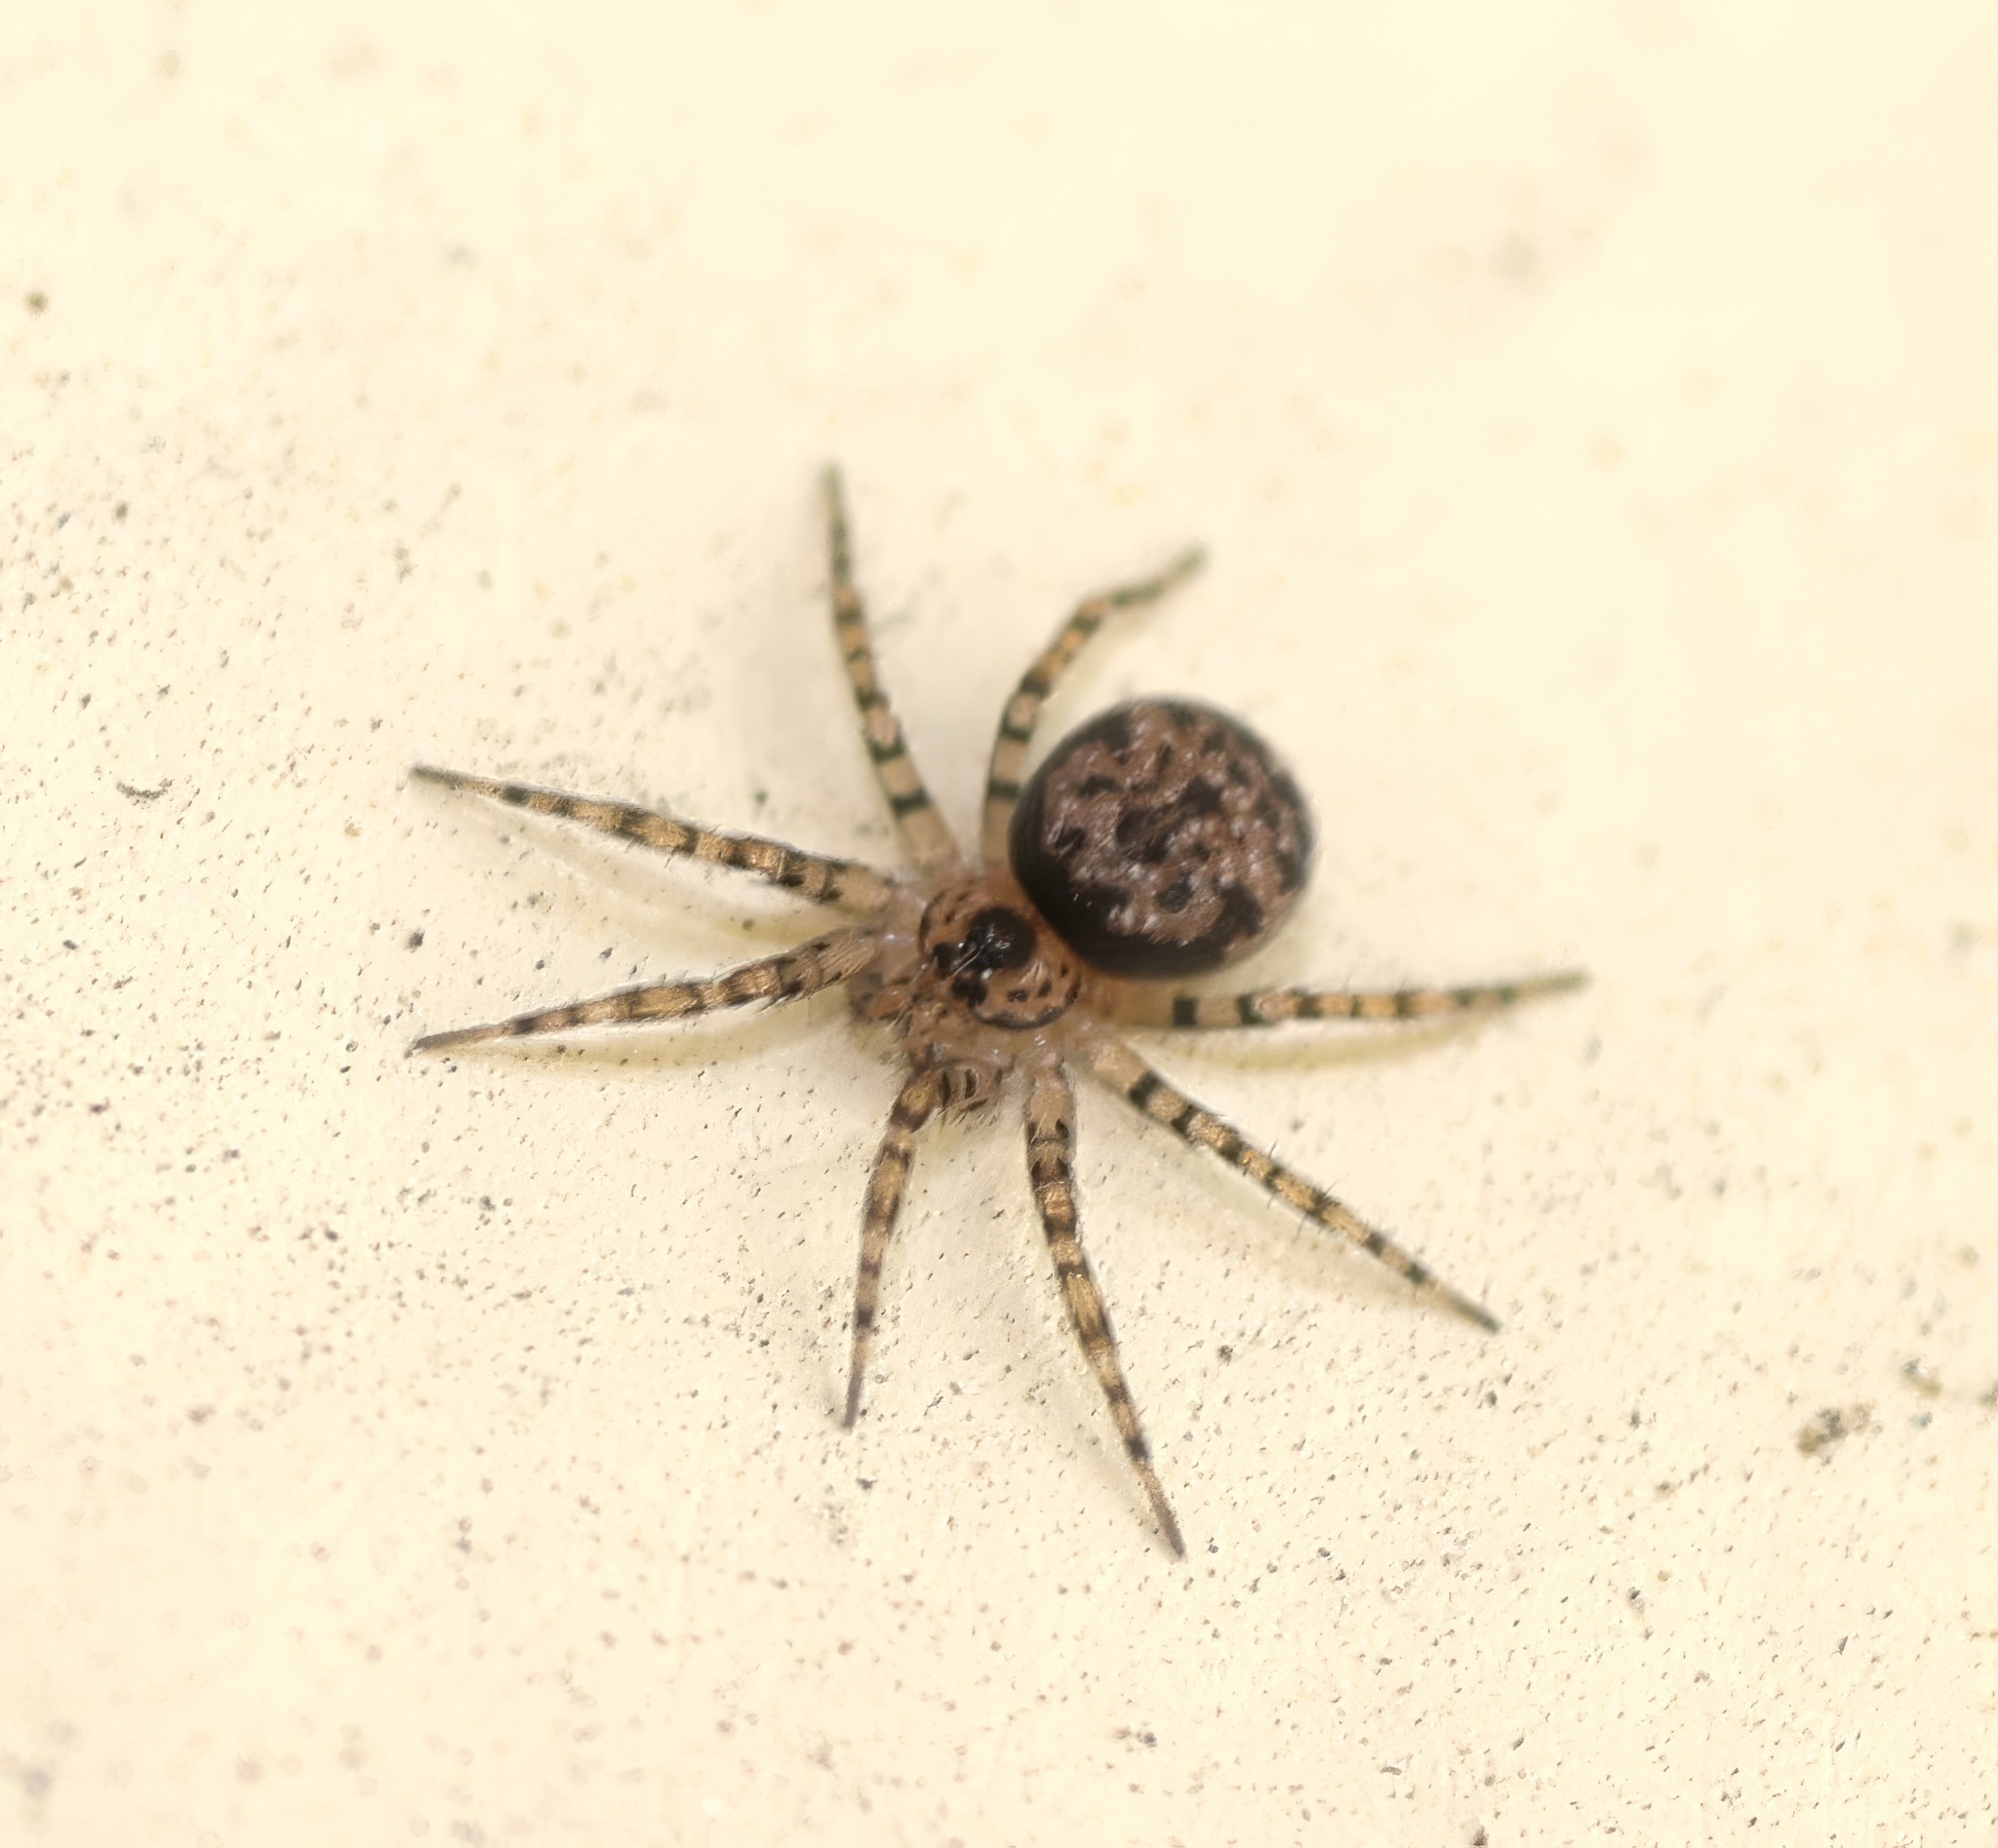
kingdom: Animalia
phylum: Arthropoda
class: Arachnida
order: Araneae
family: Oecobiidae
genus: Oecobius
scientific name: Oecobius navus
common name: Flatmesh weaver
